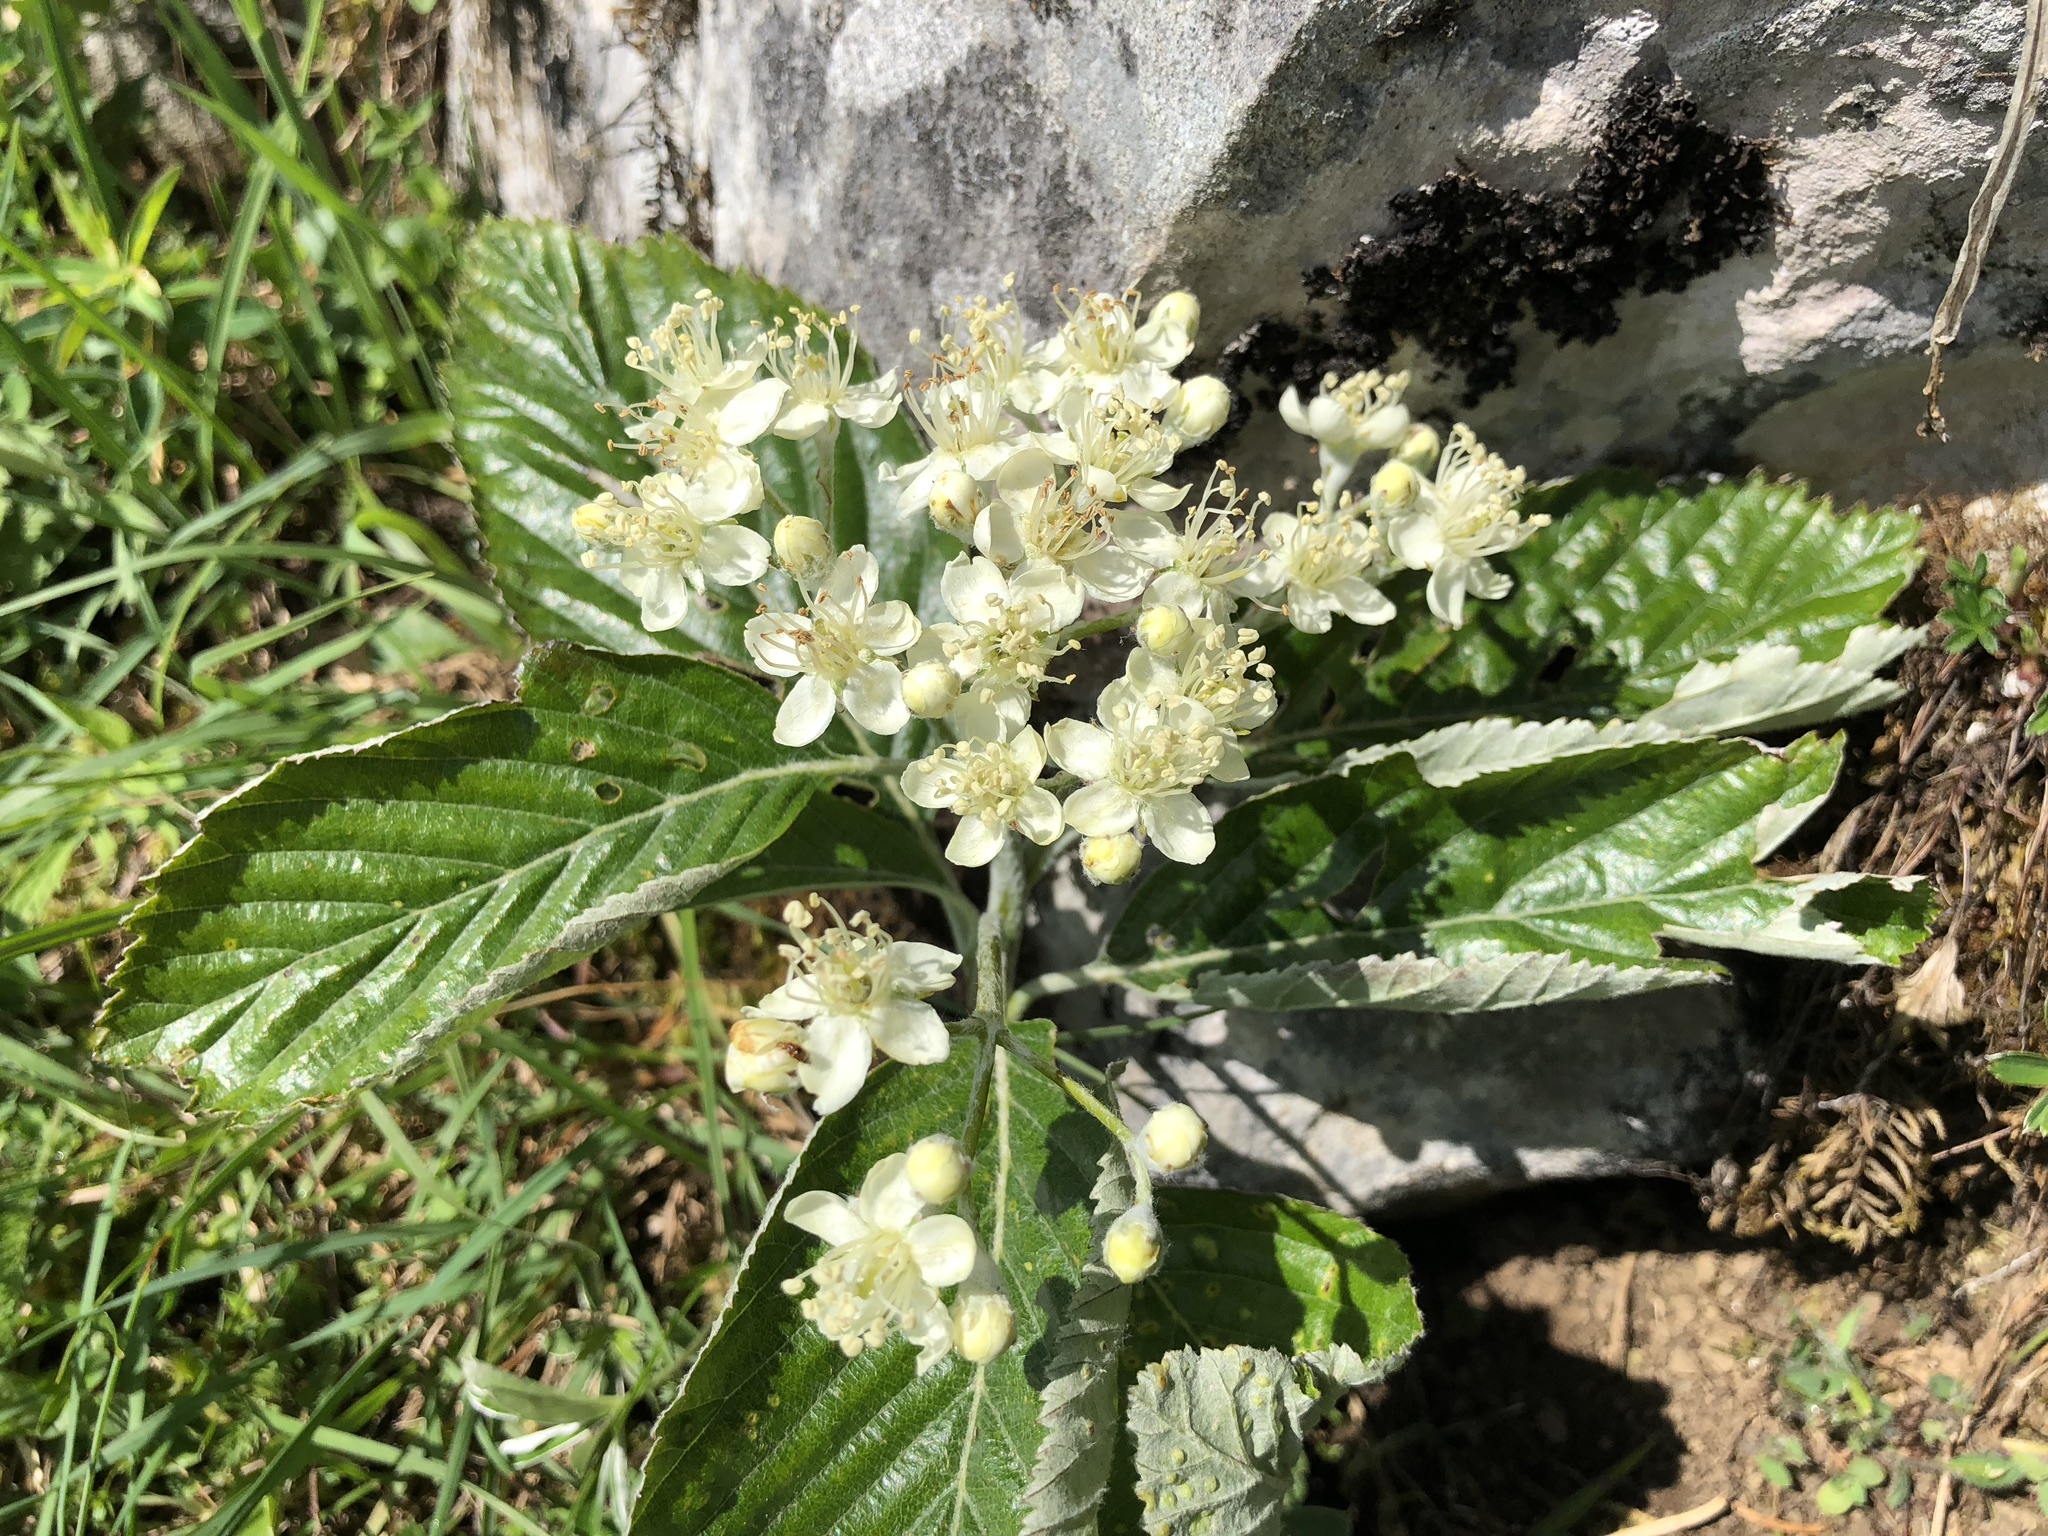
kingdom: Plantae
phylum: Tracheophyta
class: Magnoliopsida
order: Rosales
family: Rosaceae
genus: Aria
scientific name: Aria edulis
